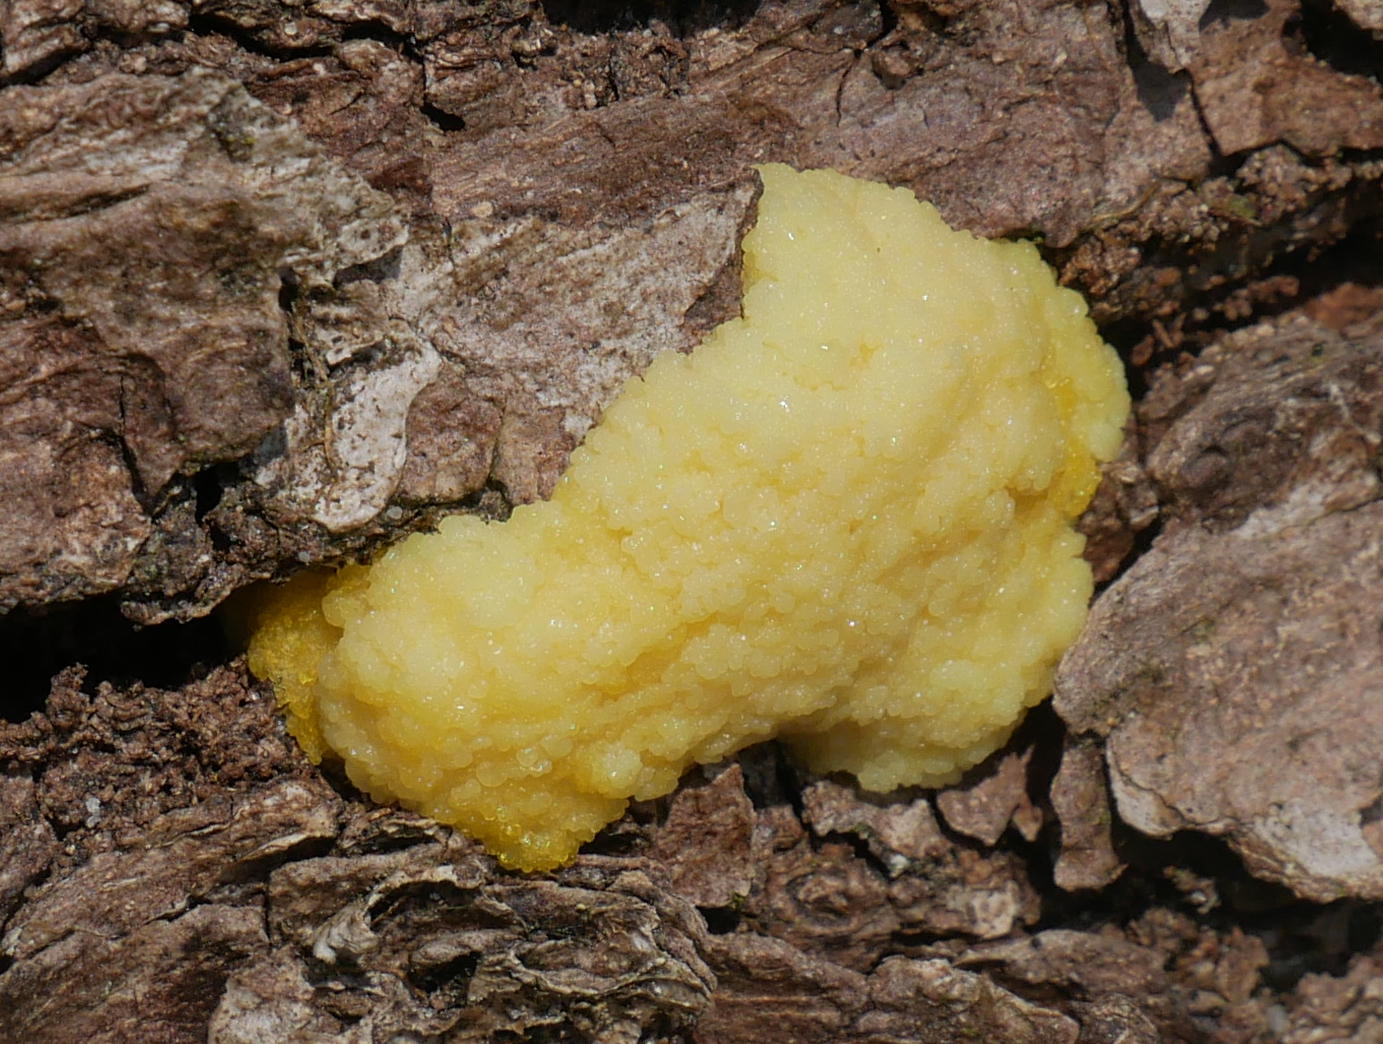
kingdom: Protozoa
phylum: Mycetozoa
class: Myxomycetes
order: Physarales
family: Physaraceae
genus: Fuligo
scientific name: Fuligo septica
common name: Dog vomit slime mold
